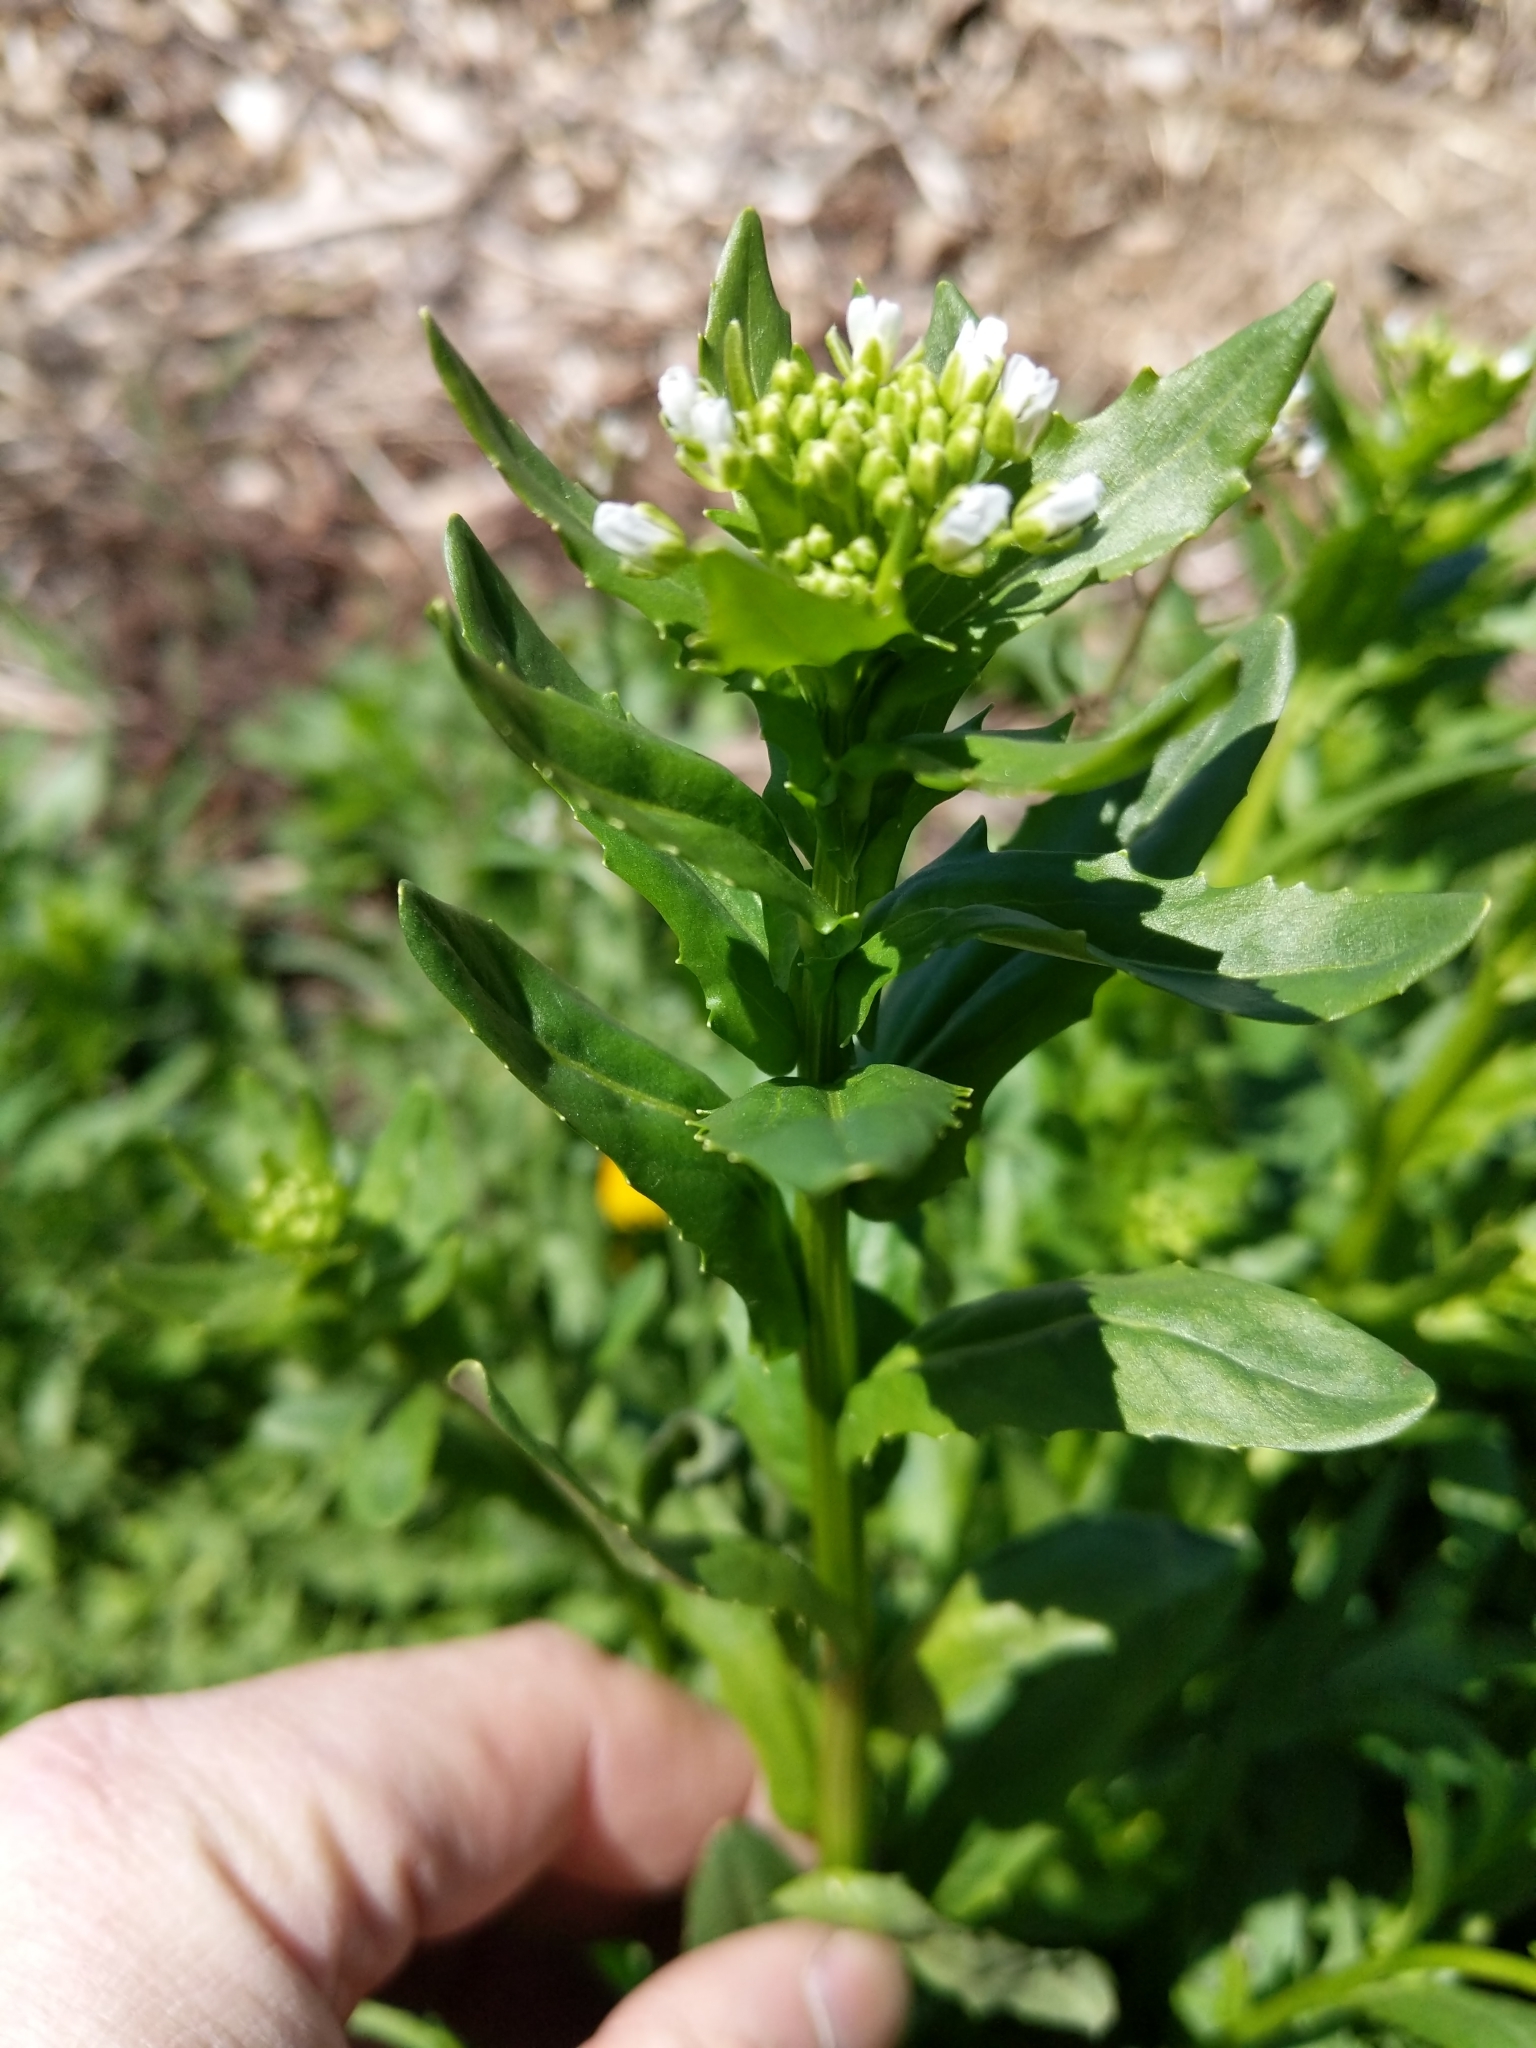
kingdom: Plantae
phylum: Tracheophyta
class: Magnoliopsida
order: Brassicales
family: Brassicaceae
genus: Thlaspi
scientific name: Thlaspi arvense
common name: Field pennycress
